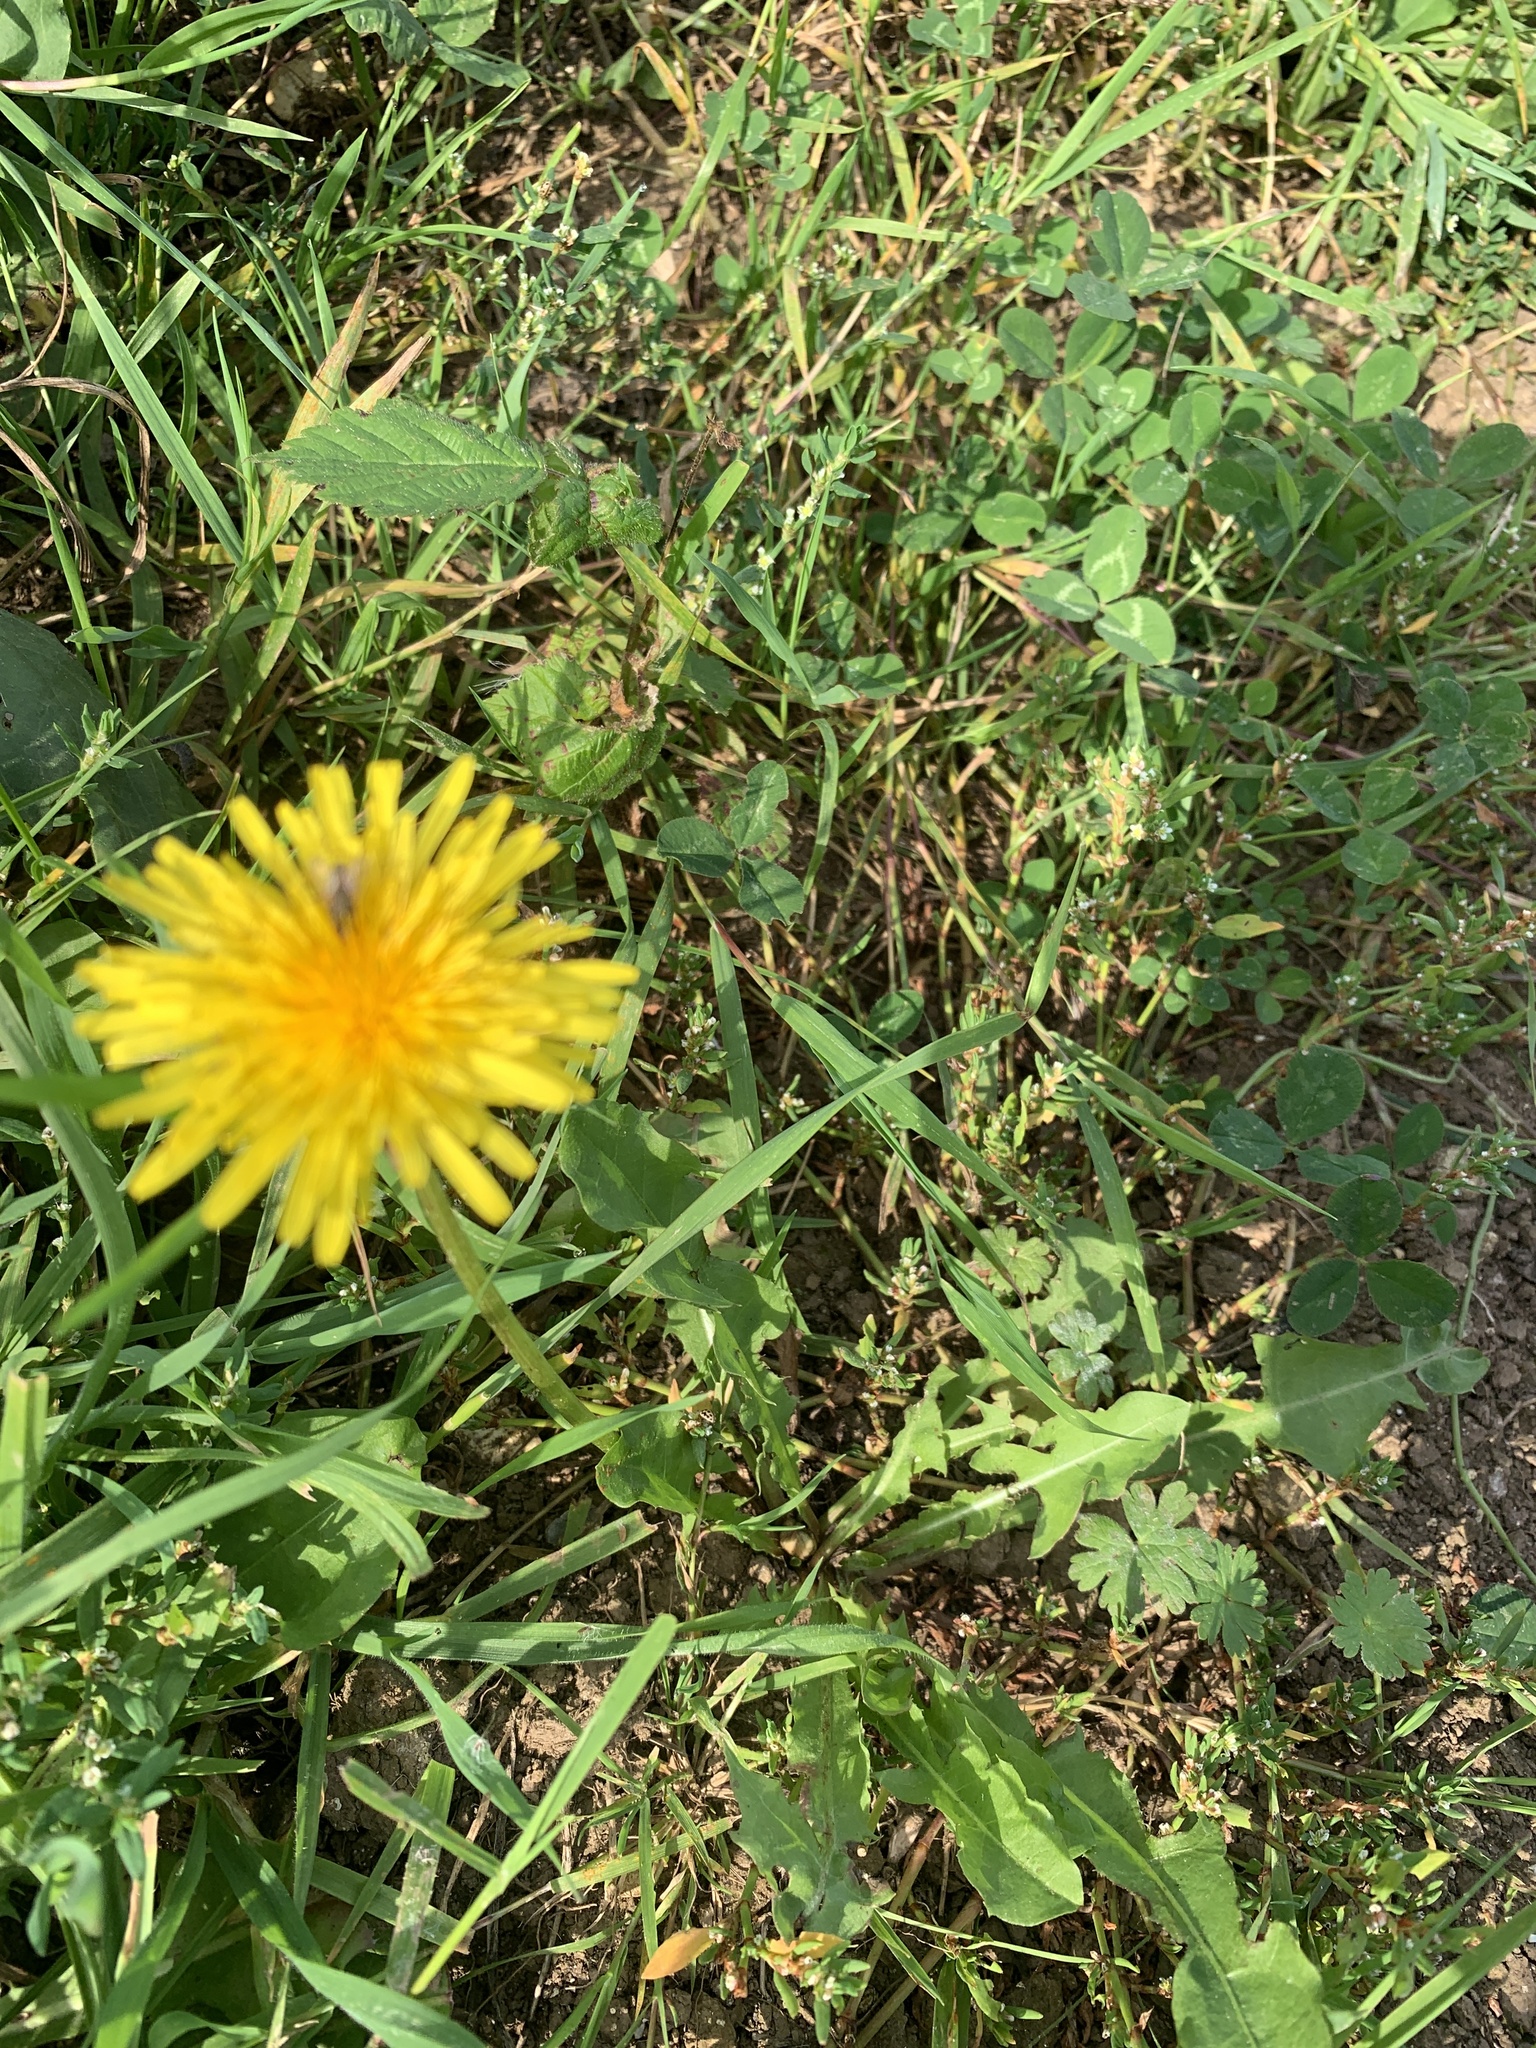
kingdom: Plantae
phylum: Tracheophyta
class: Magnoliopsida
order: Asterales
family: Asteraceae
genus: Taraxacum
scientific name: Taraxacum officinale
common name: Common dandelion
